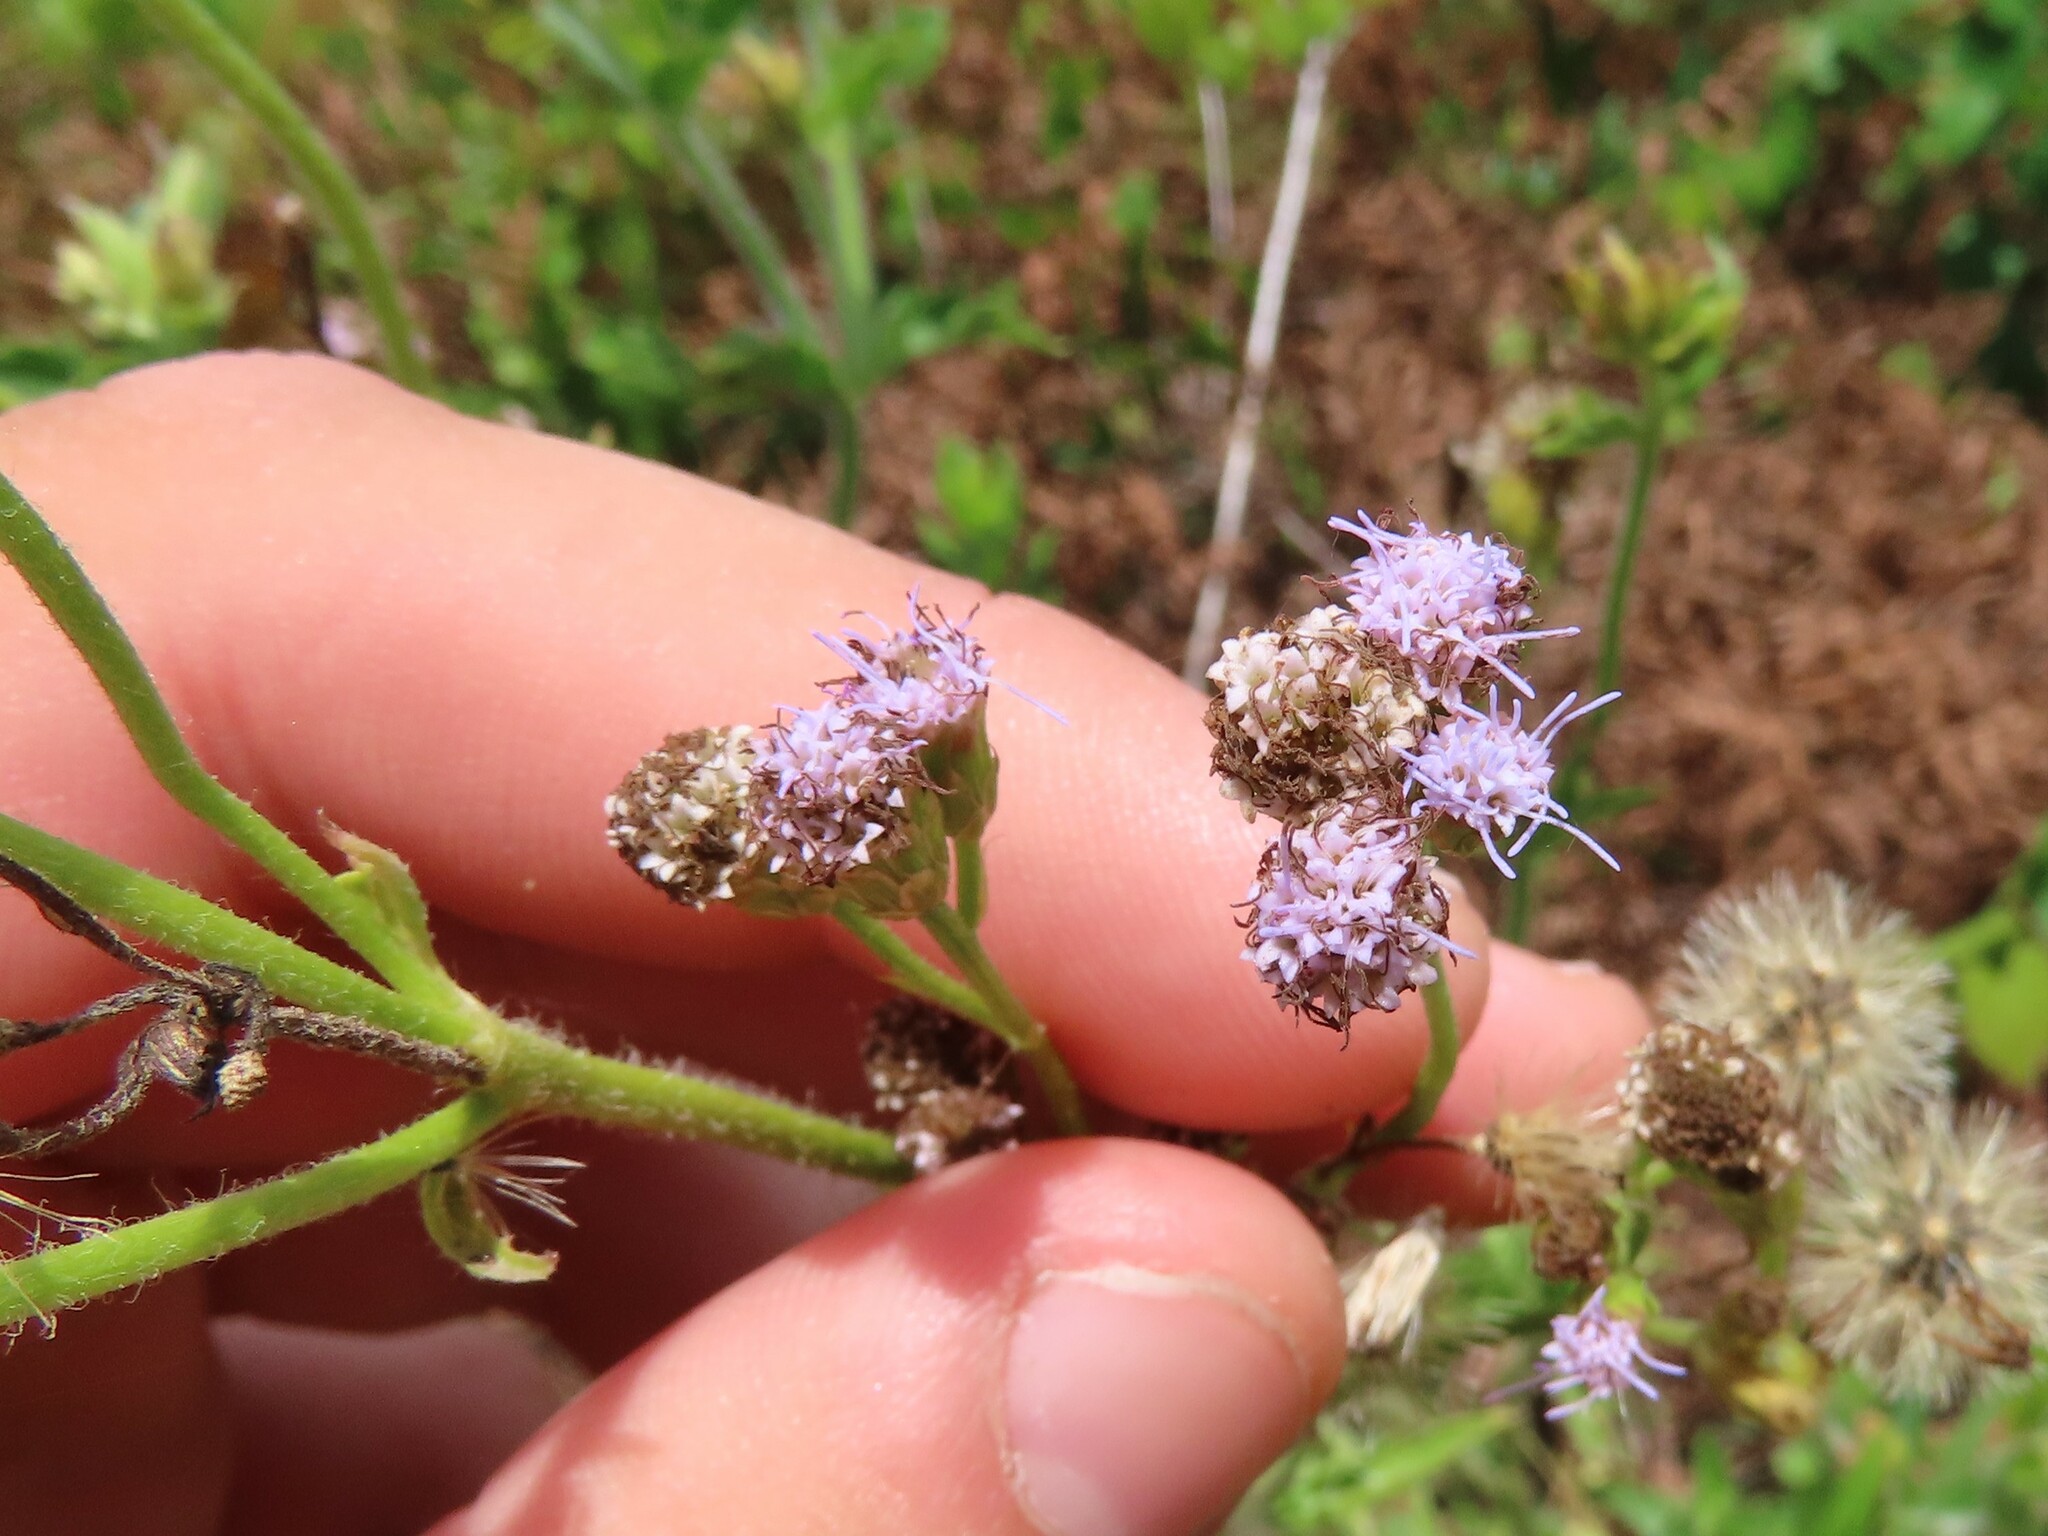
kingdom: Plantae
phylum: Tracheophyta
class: Magnoliopsida
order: Asterales
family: Asteraceae
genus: Praxelis
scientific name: Praxelis clematidea
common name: Praxelis
